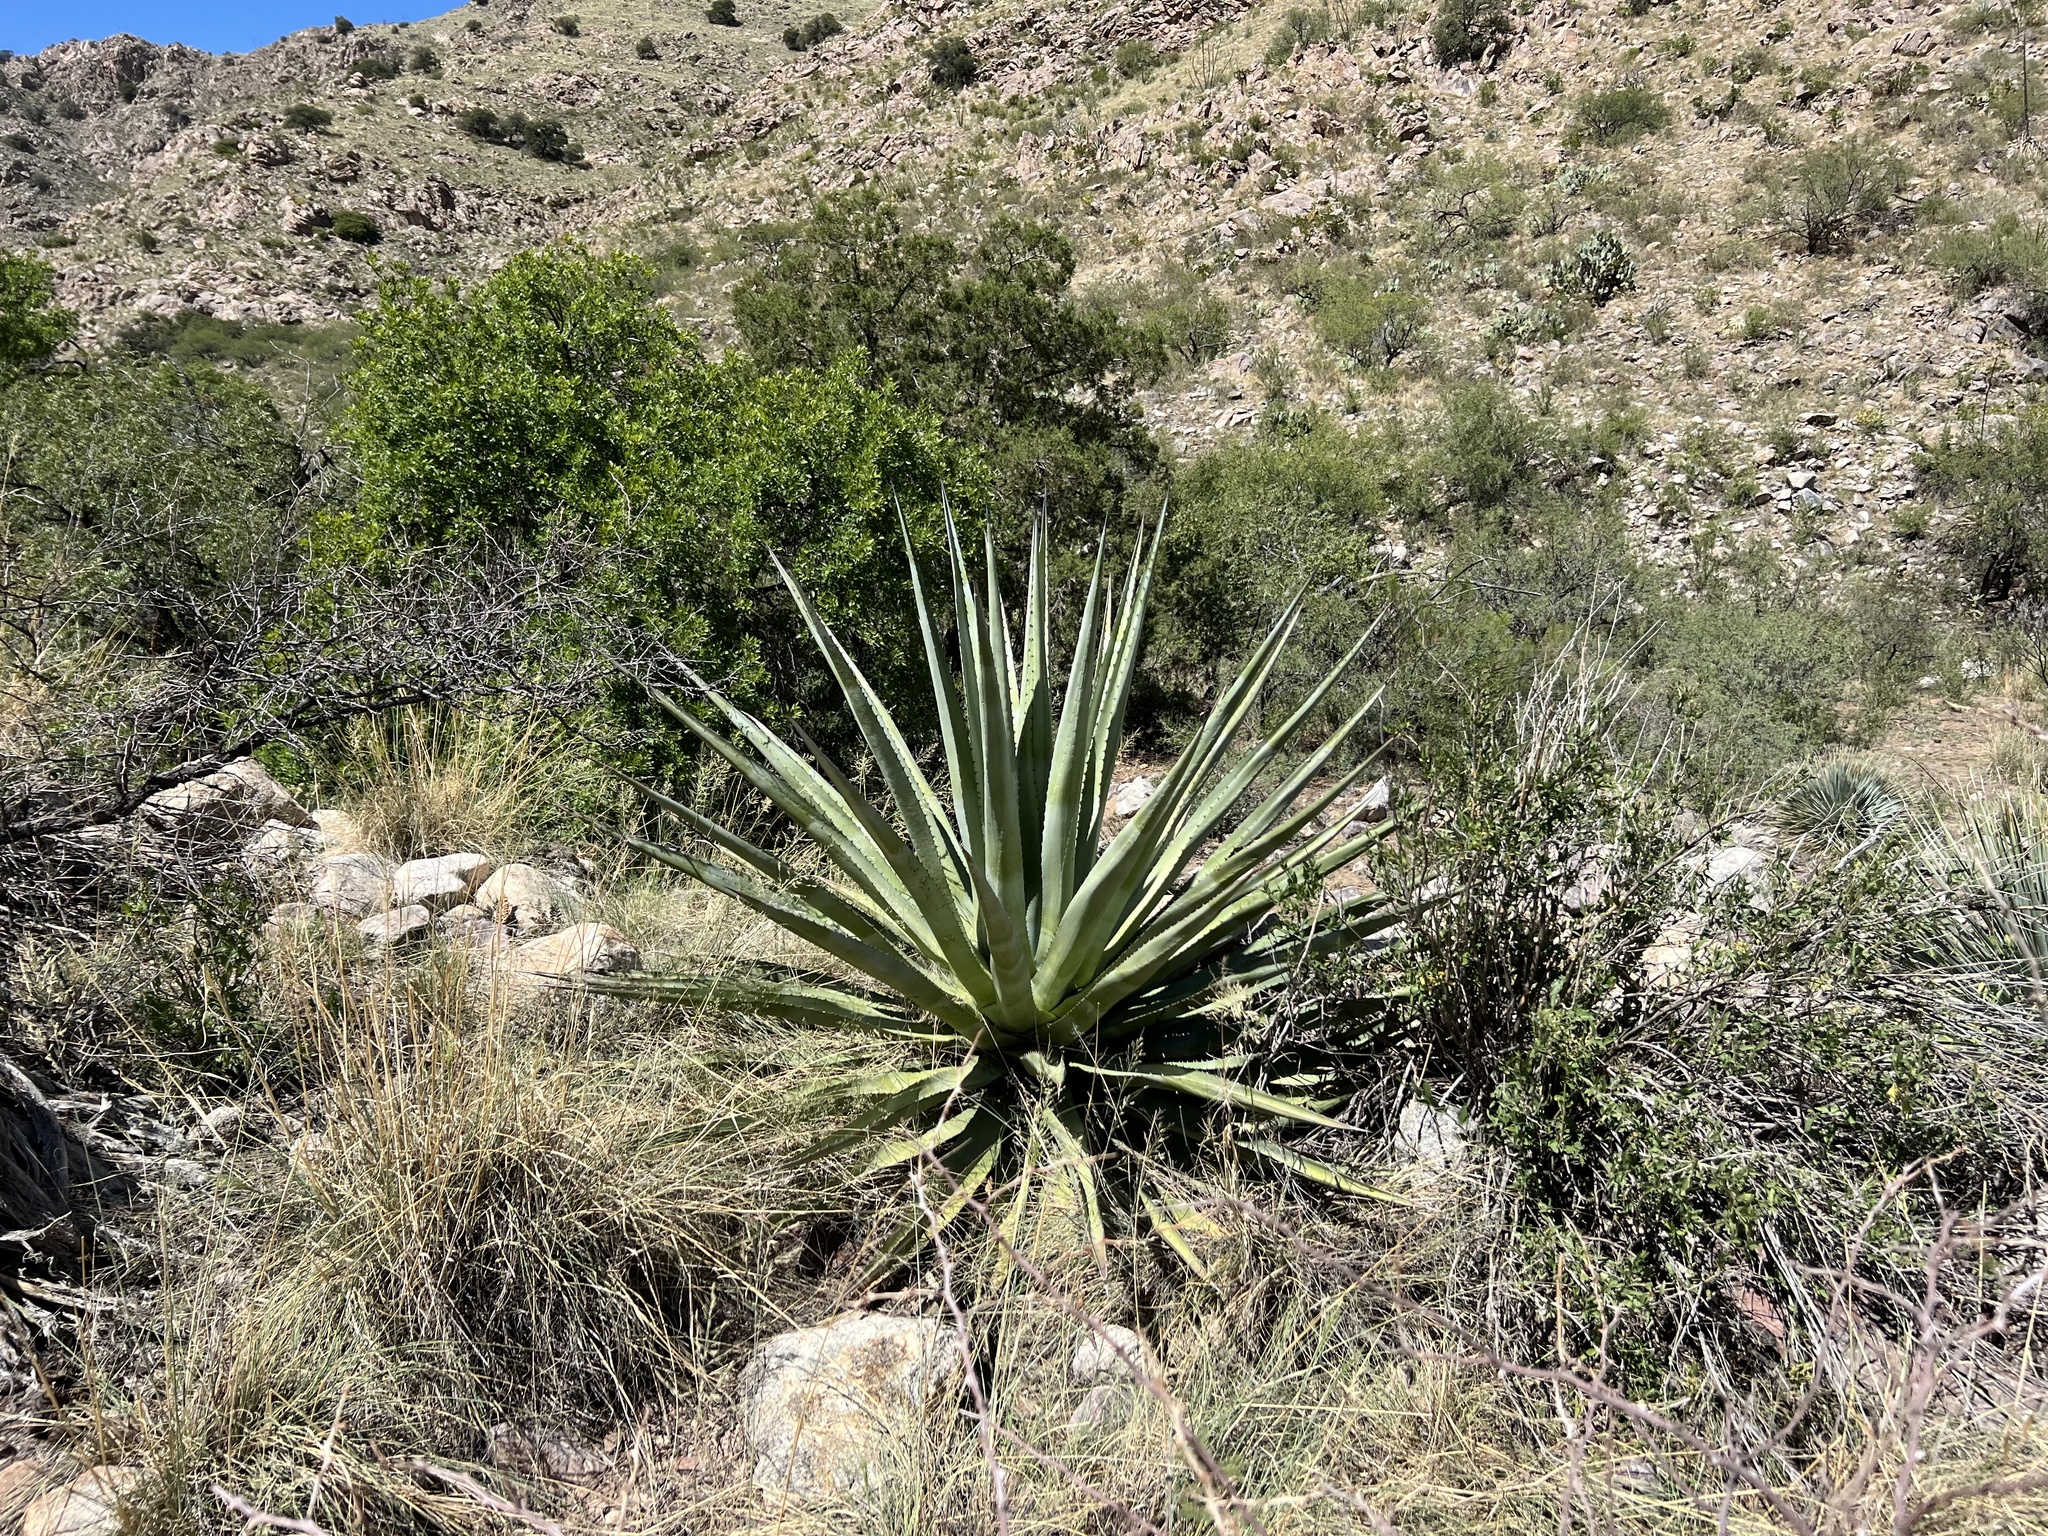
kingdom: Plantae
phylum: Tracheophyta
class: Liliopsida
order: Asparagales
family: Asparagaceae
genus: Agave
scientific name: Agave palmeri
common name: Palmer agave
